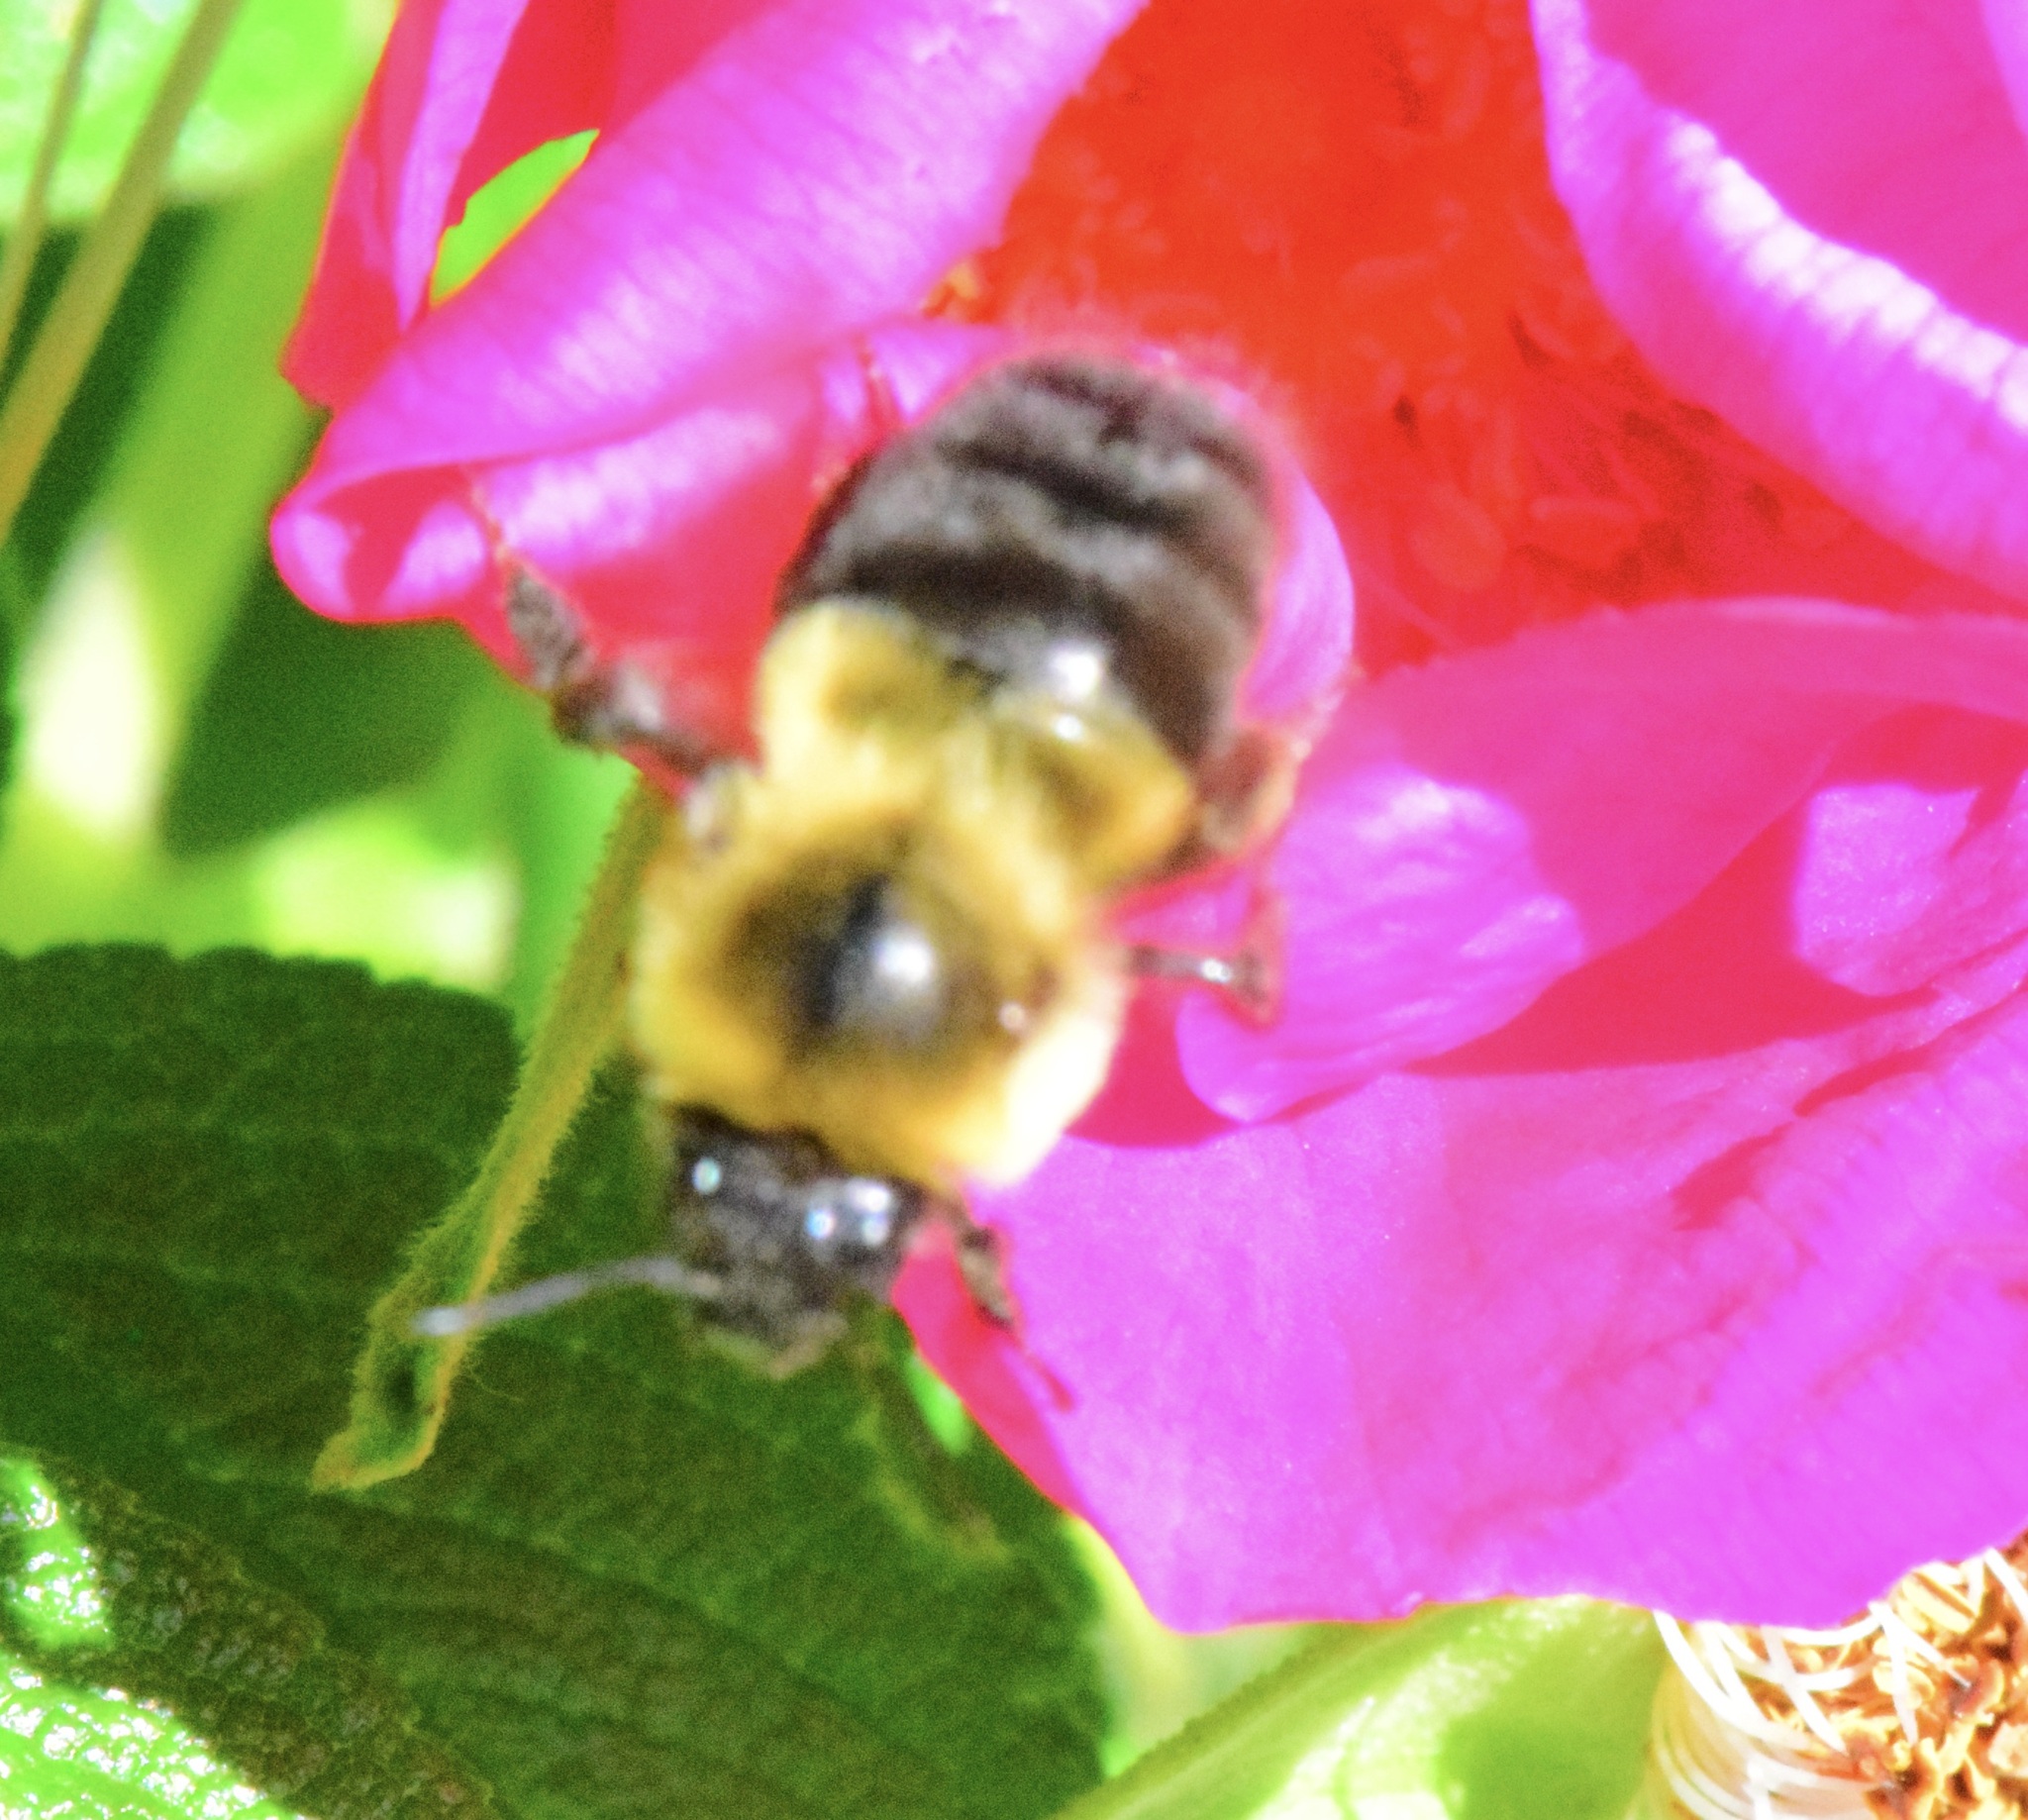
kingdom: Animalia
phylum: Arthropoda
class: Insecta
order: Hymenoptera
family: Apidae
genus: Bombus
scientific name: Bombus impatiens
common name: Common eastern bumble bee
